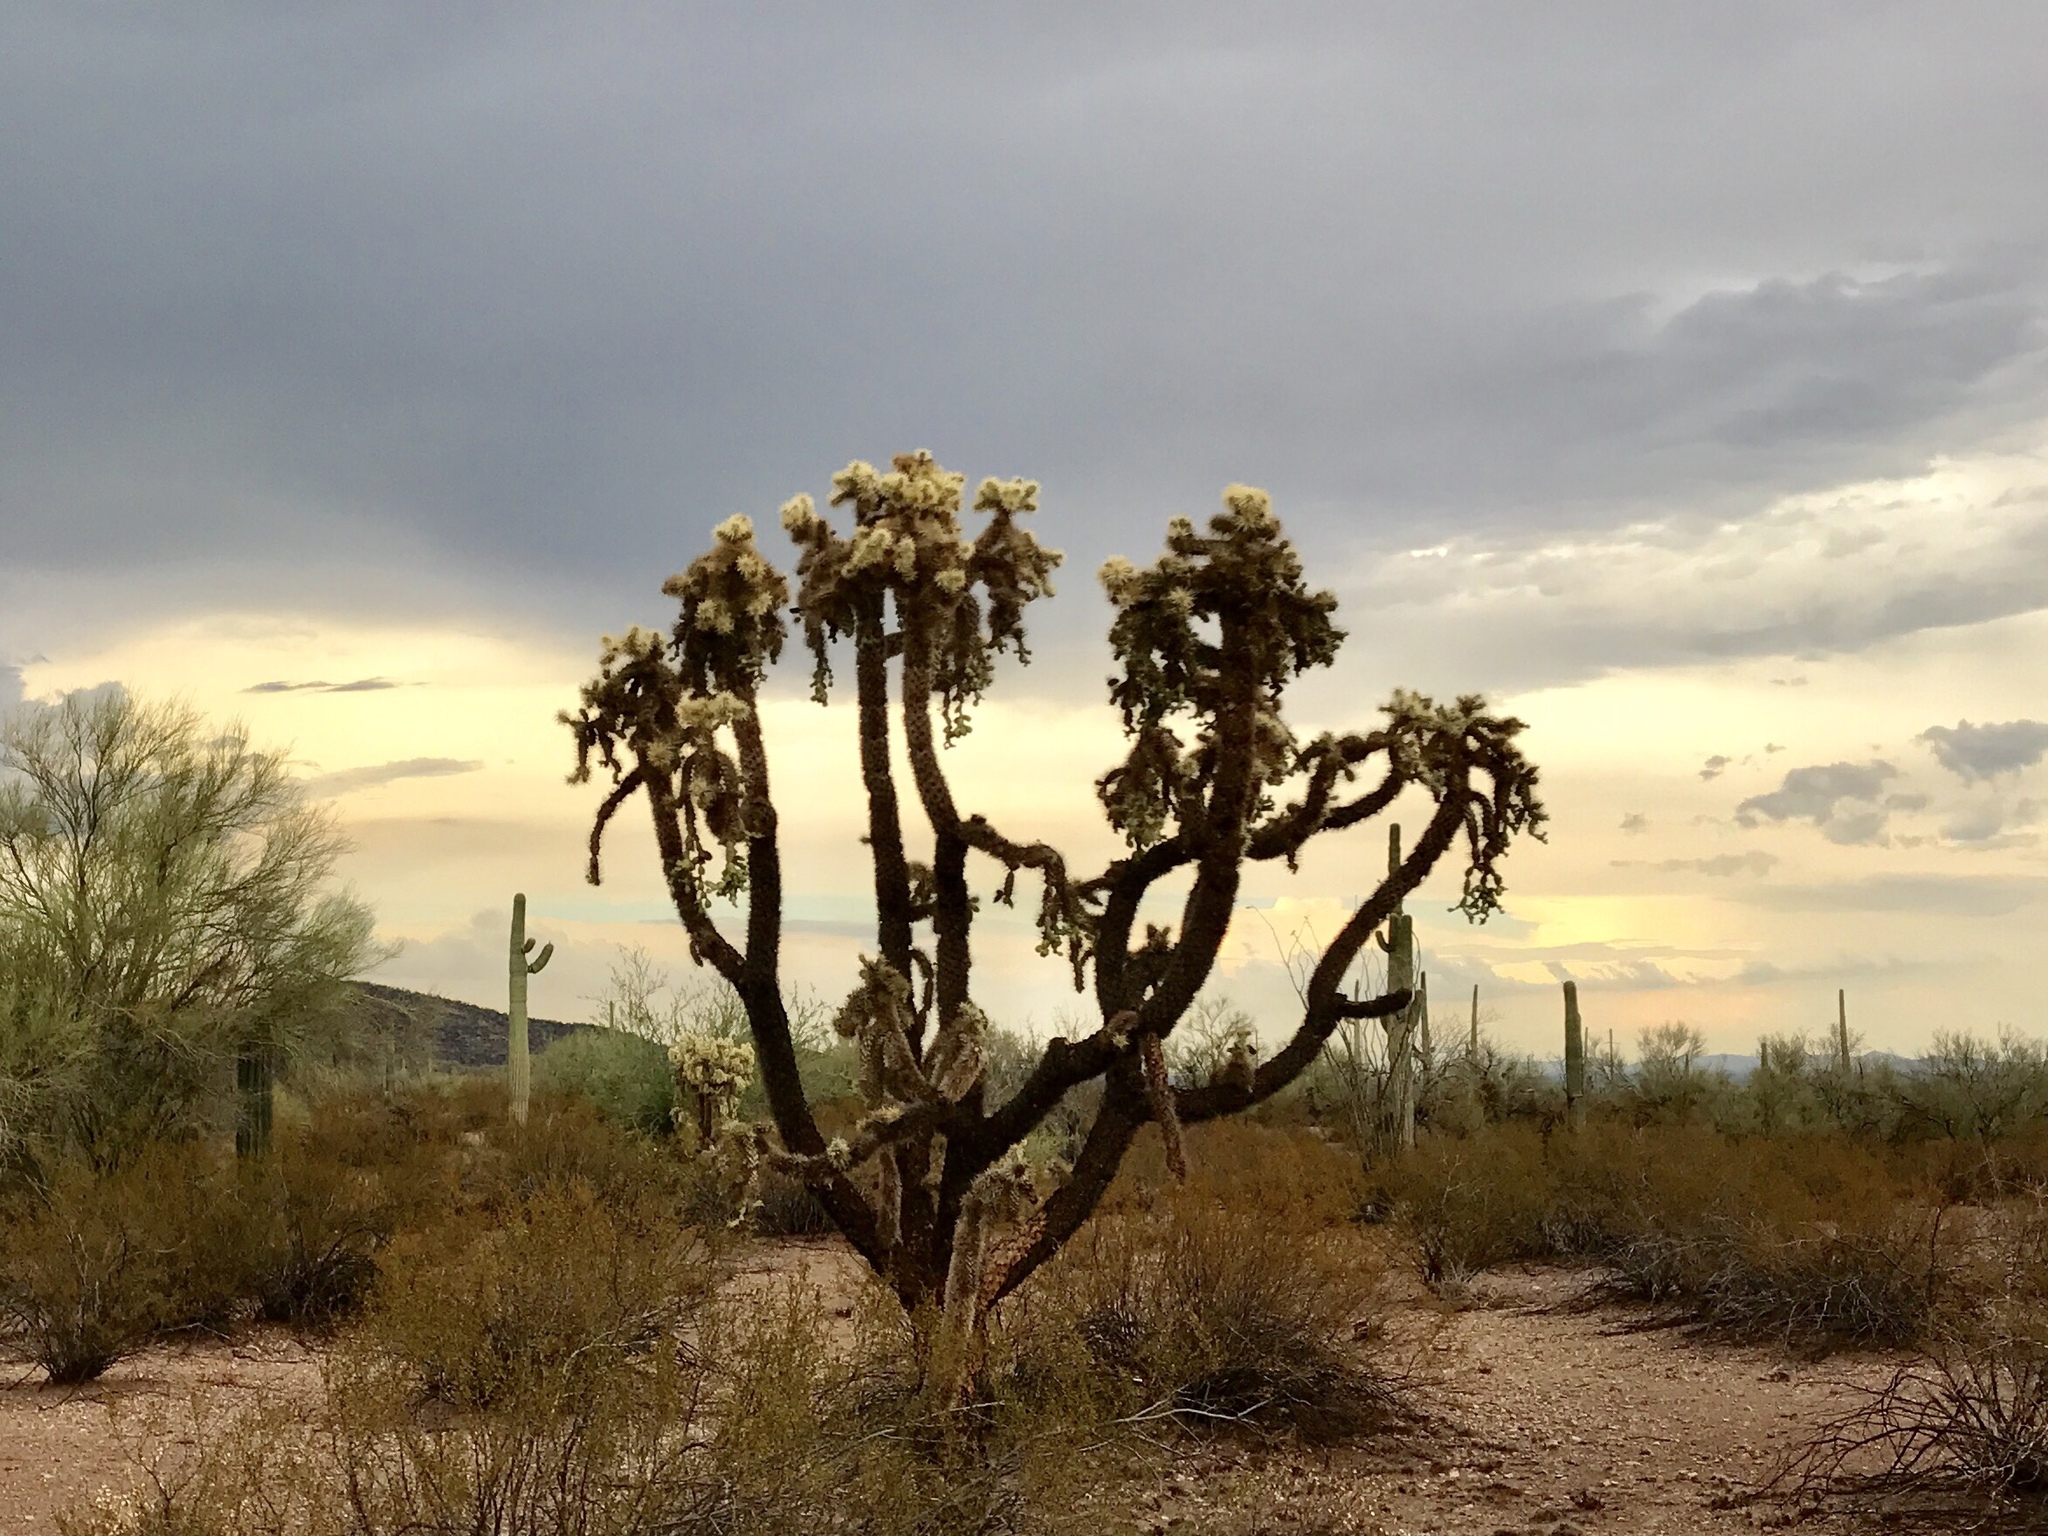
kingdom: Plantae
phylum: Tracheophyta
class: Magnoliopsida
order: Caryophyllales
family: Cactaceae
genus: Cylindropuntia
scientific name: Cylindropuntia fulgida
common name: Jumping cholla
